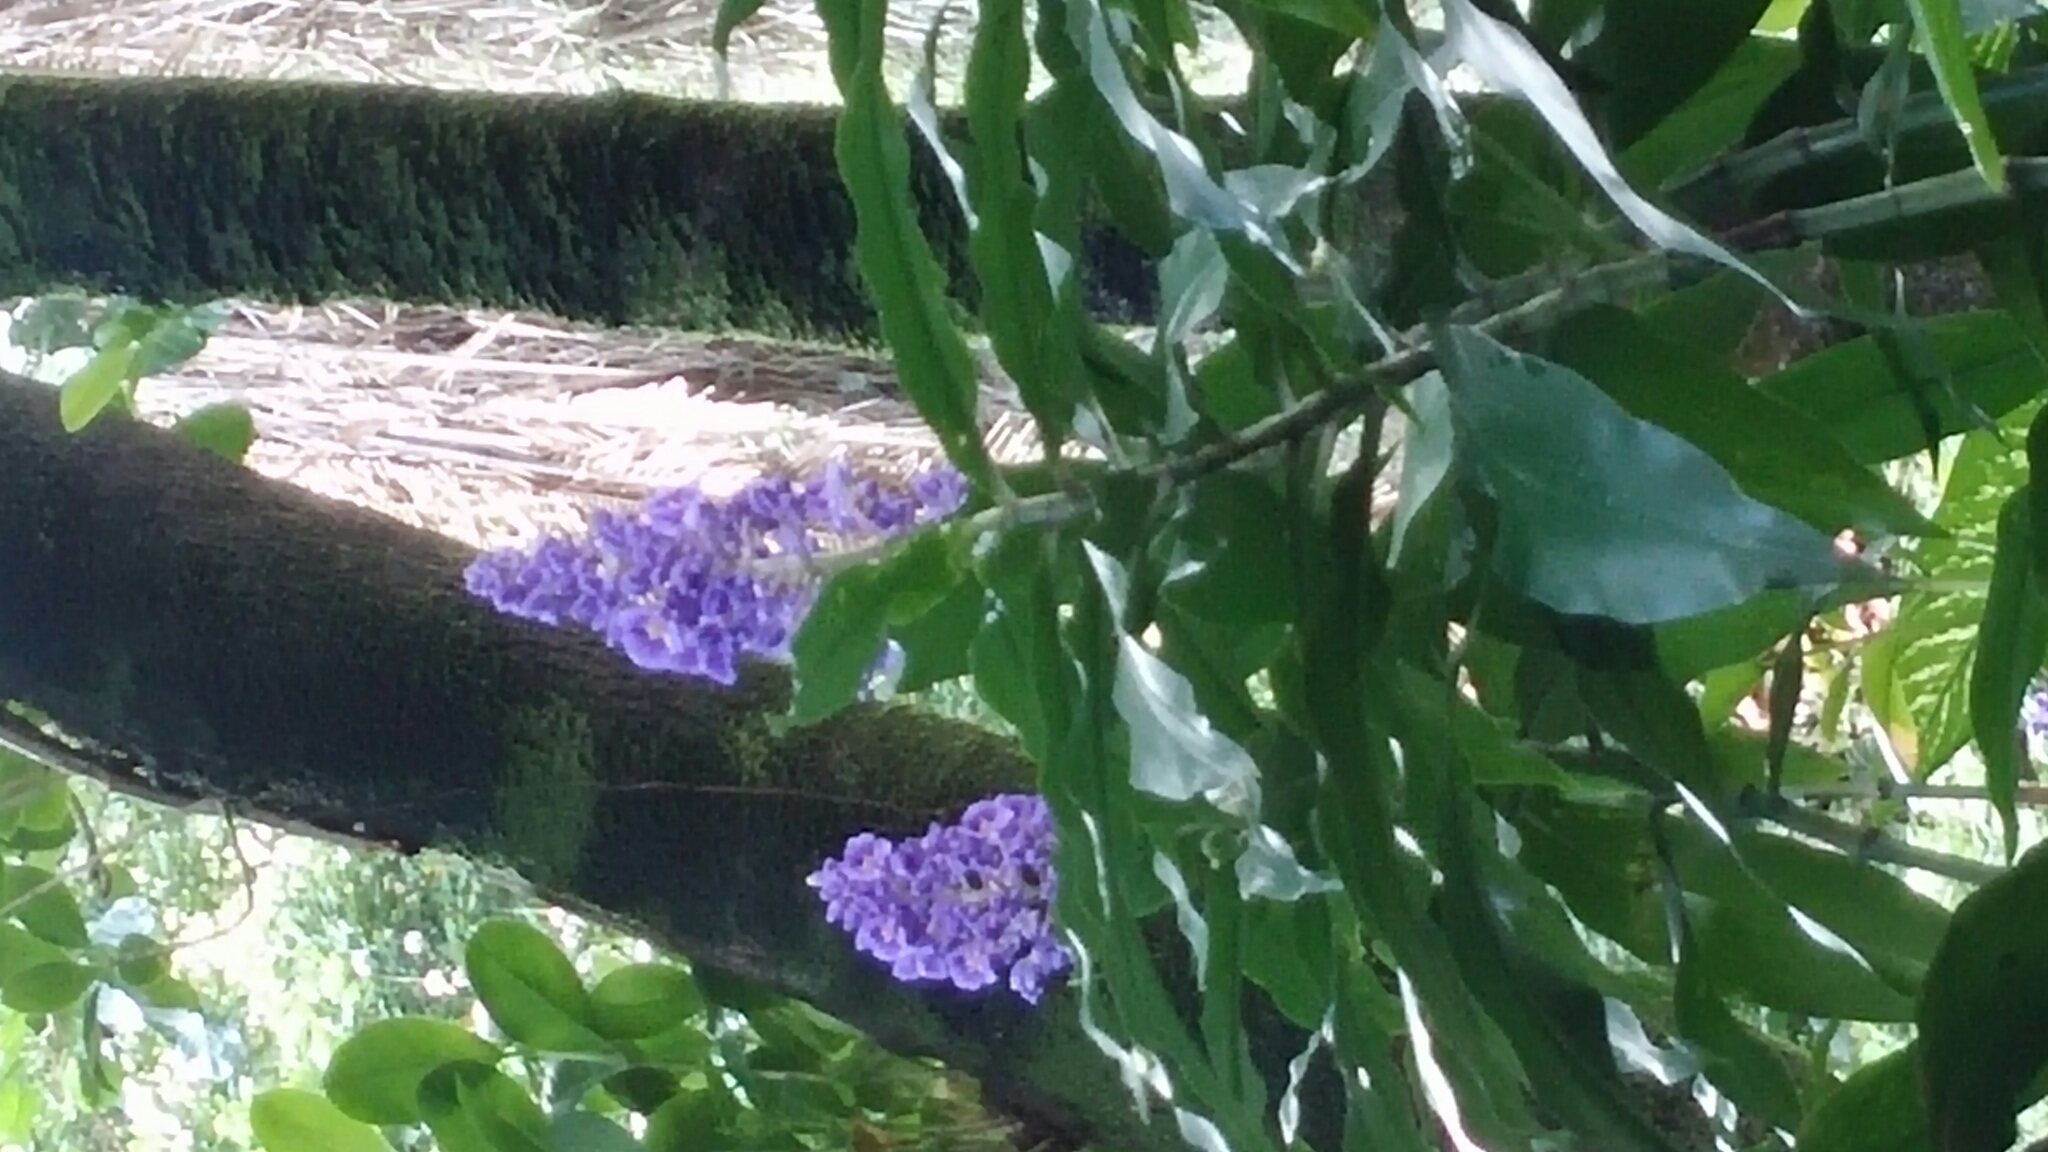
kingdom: Plantae
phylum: Tracheophyta
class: Liliopsida
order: Commelinales
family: Commelinaceae
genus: Dichorisandra
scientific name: Dichorisandra thyrsiflora
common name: Blue-ginger
